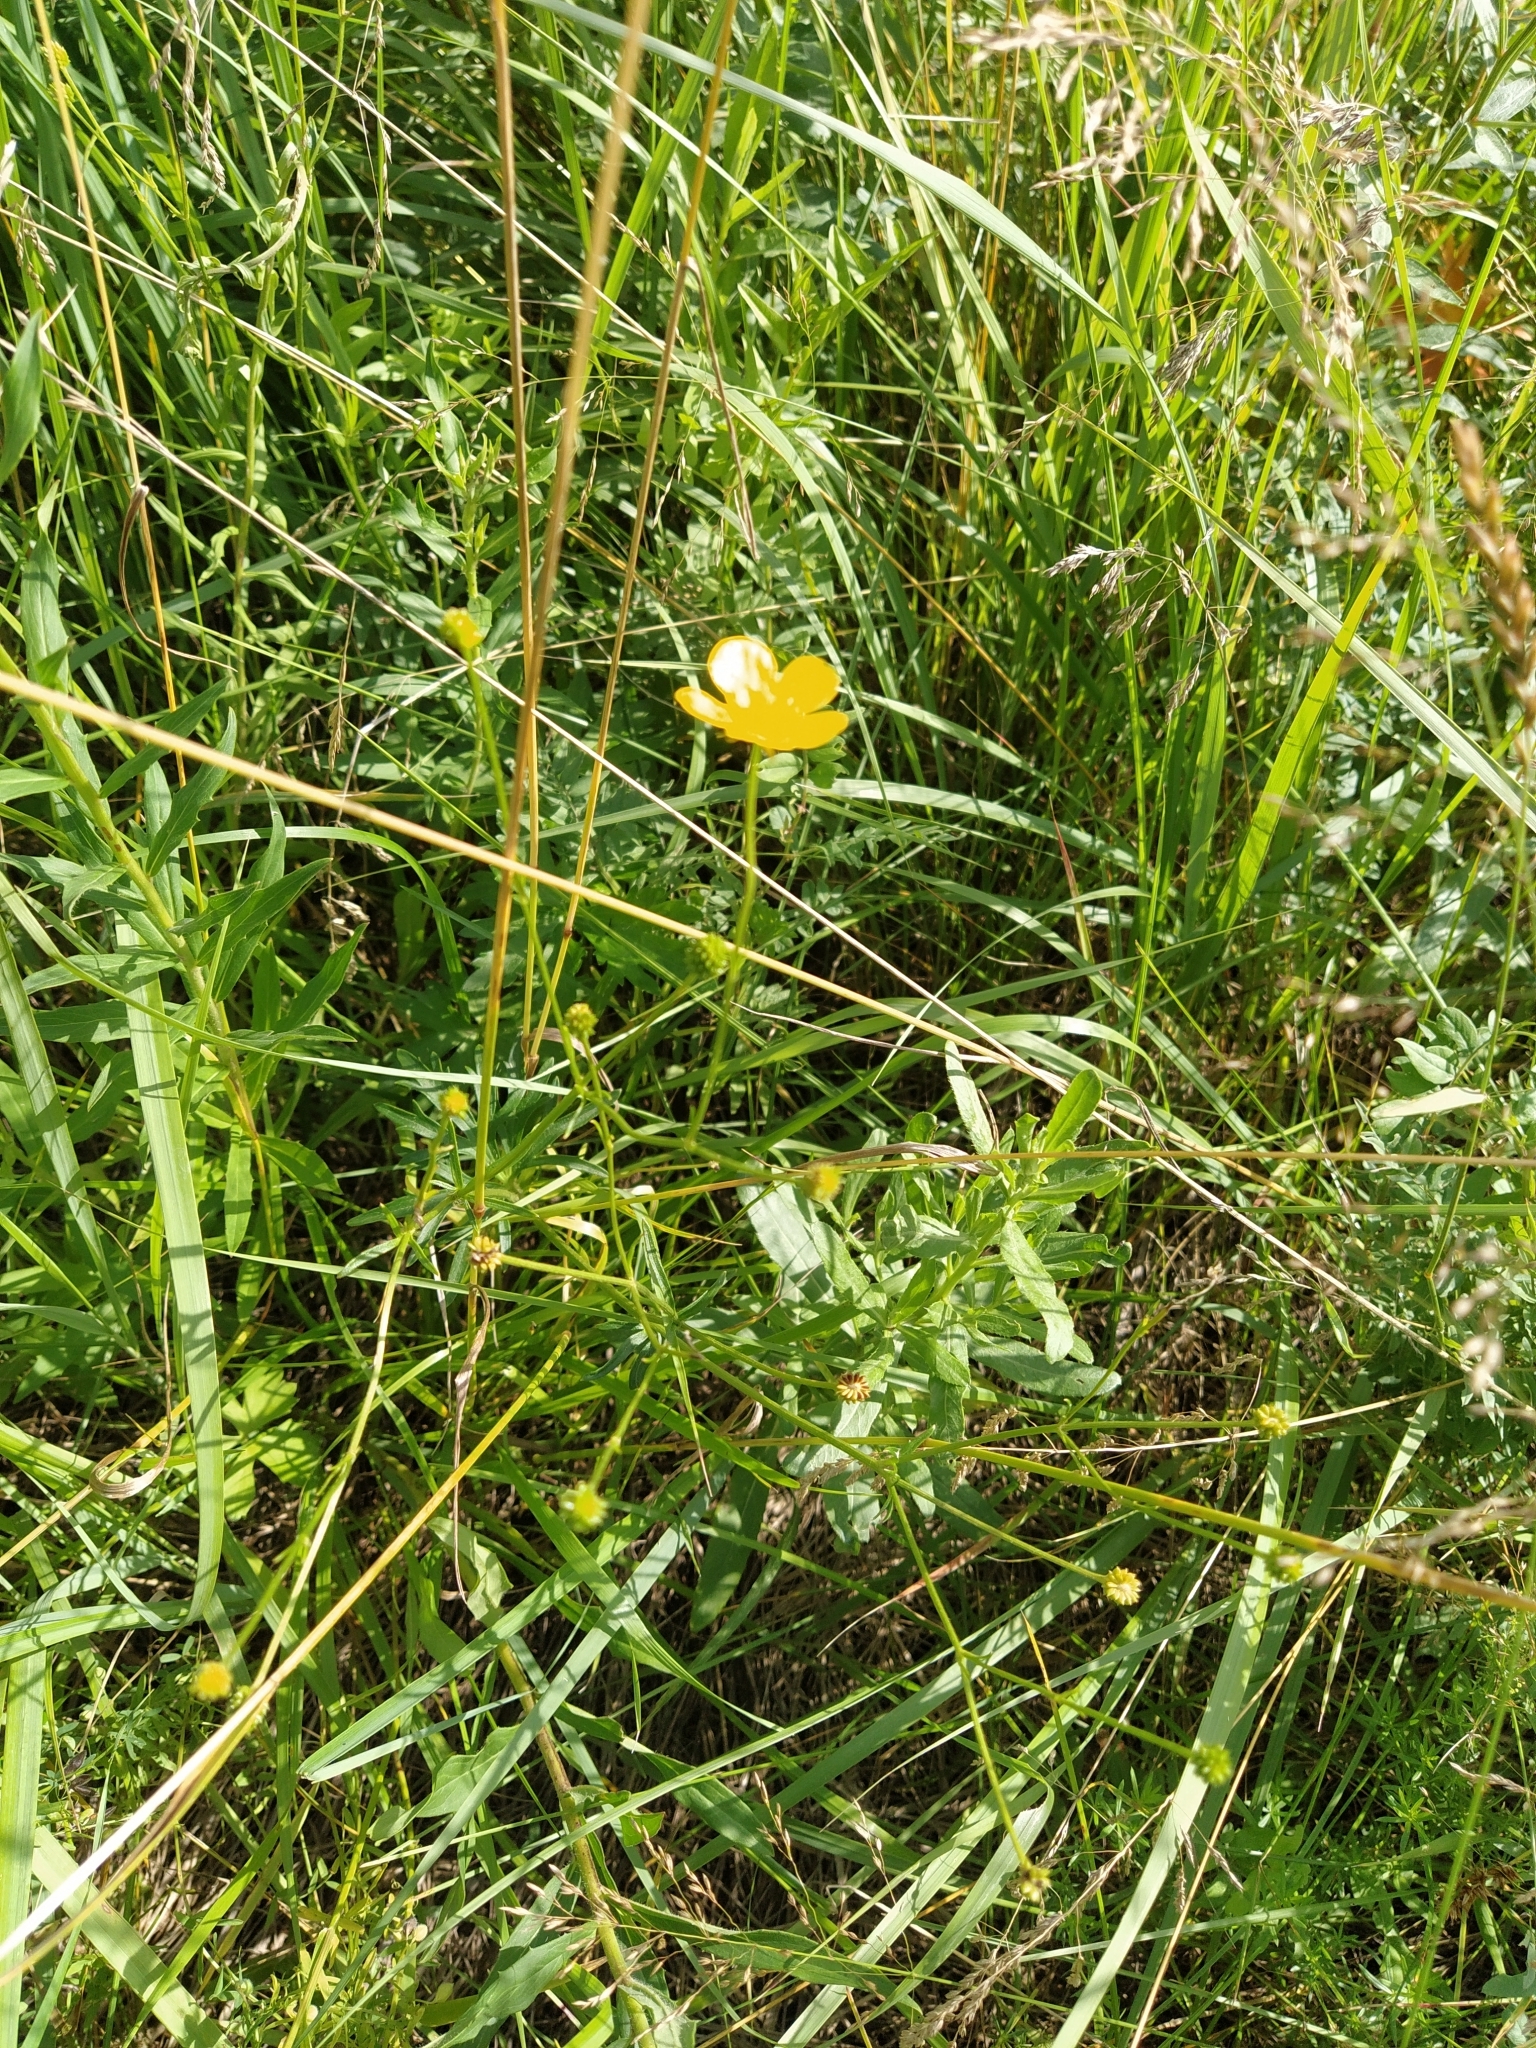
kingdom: Plantae
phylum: Tracheophyta
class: Magnoliopsida
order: Ranunculales
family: Ranunculaceae
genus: Ranunculus
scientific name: Ranunculus polyanthemos
